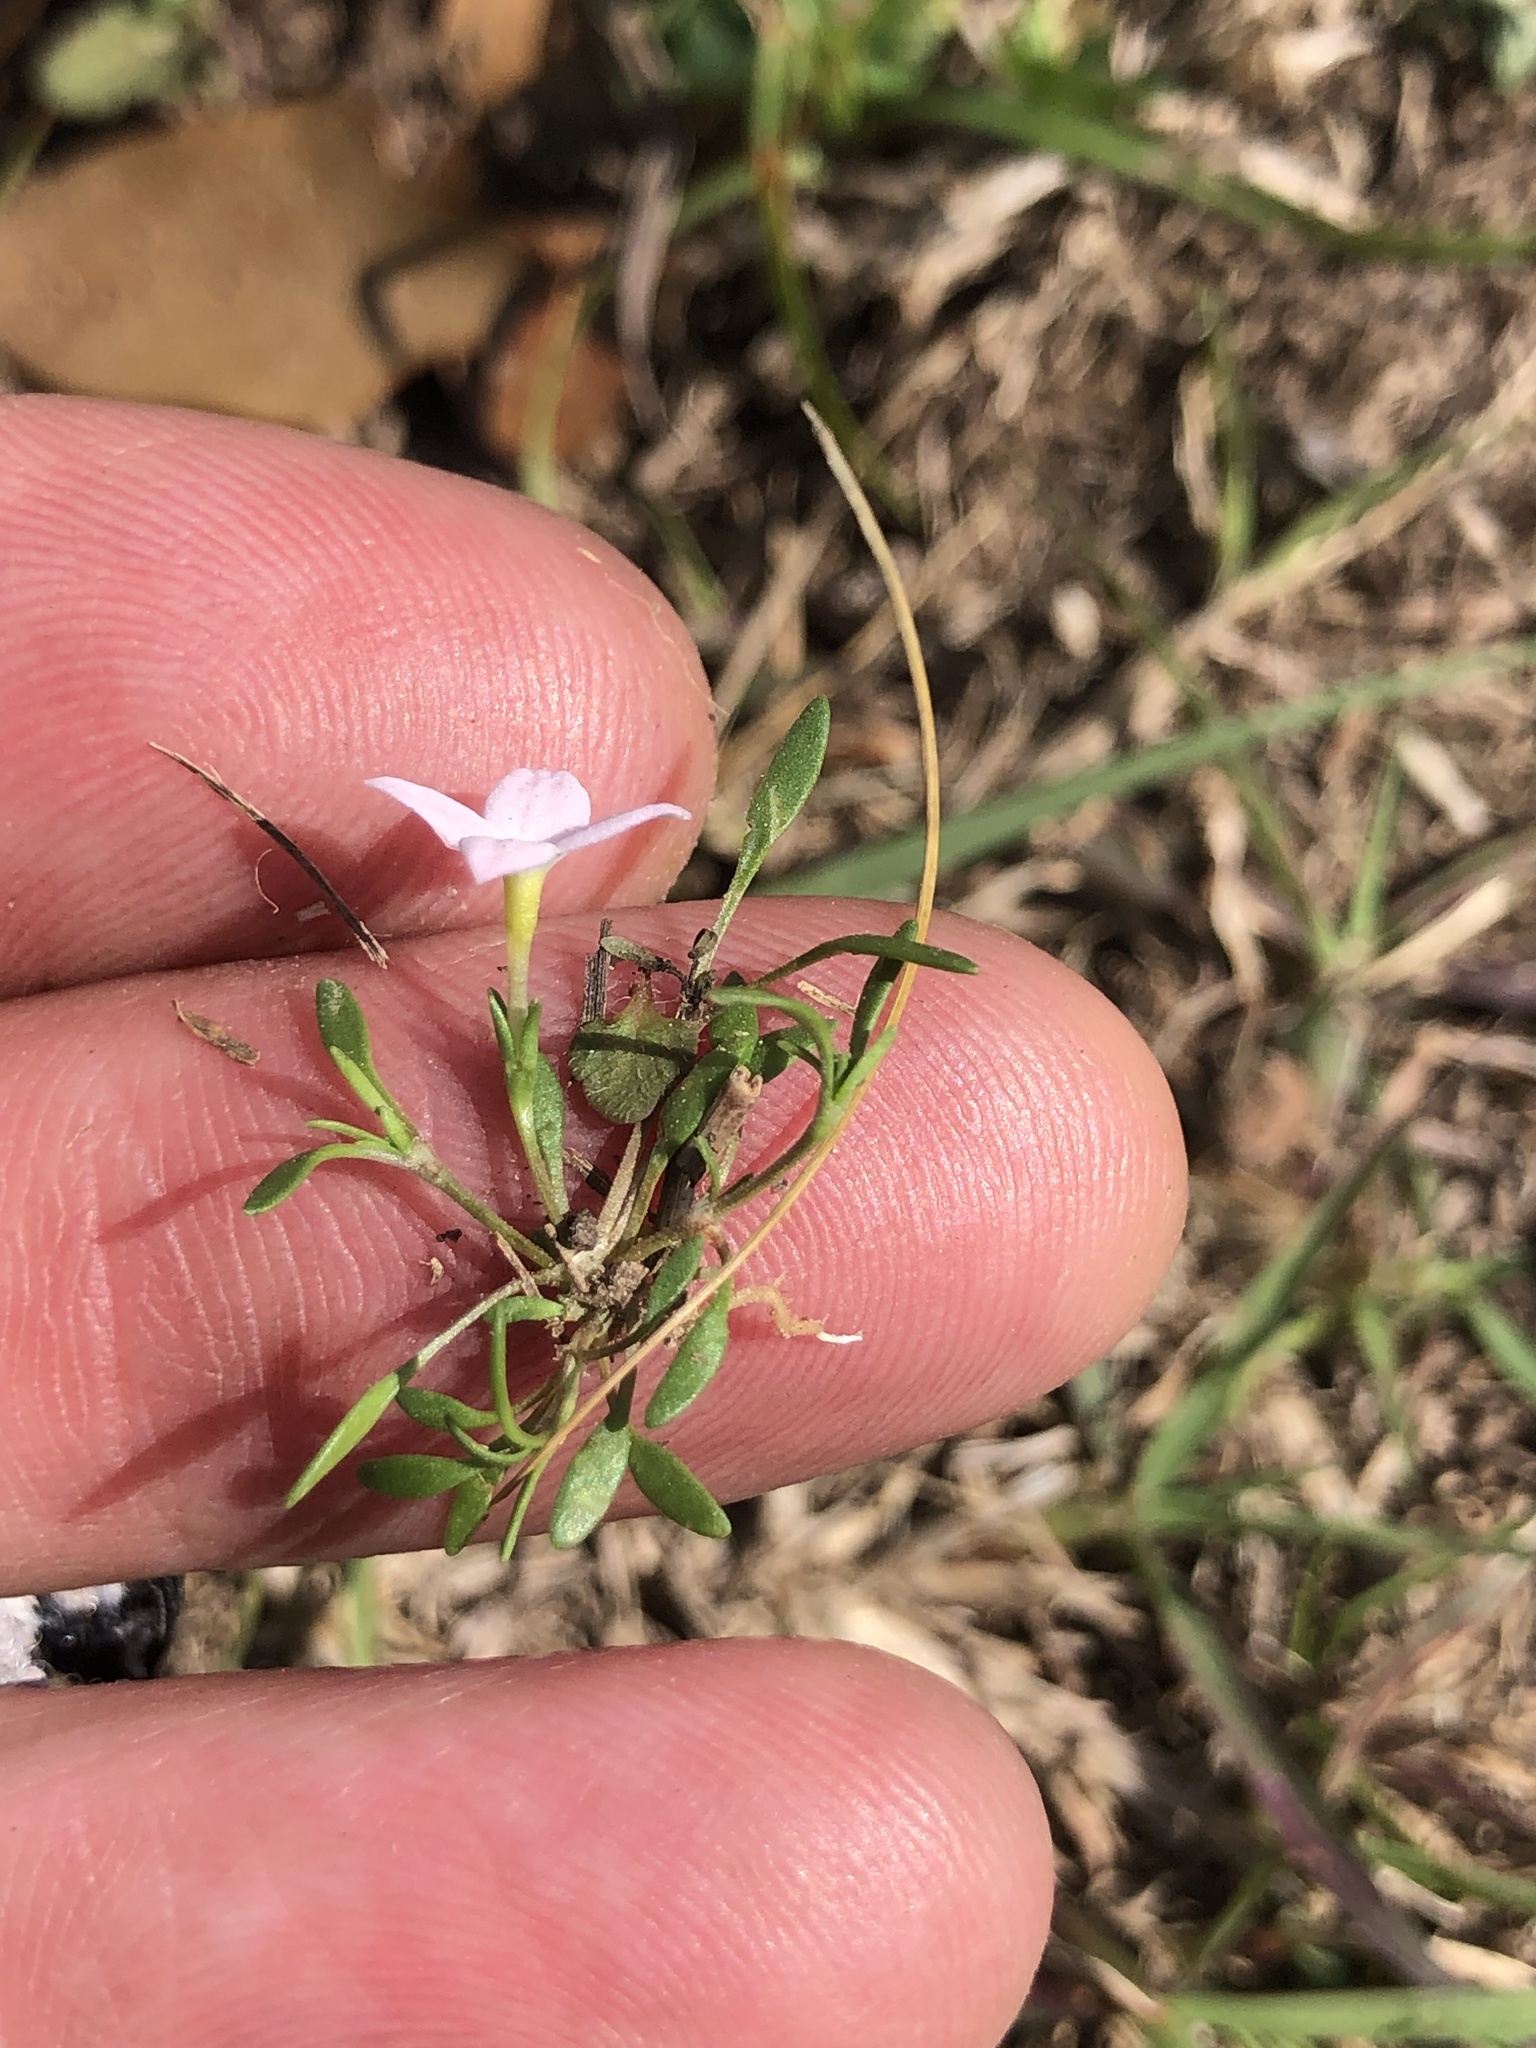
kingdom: Plantae
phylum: Tracheophyta
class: Magnoliopsida
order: Gentianales
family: Rubiaceae
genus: Houstonia
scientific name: Houstonia rosea
